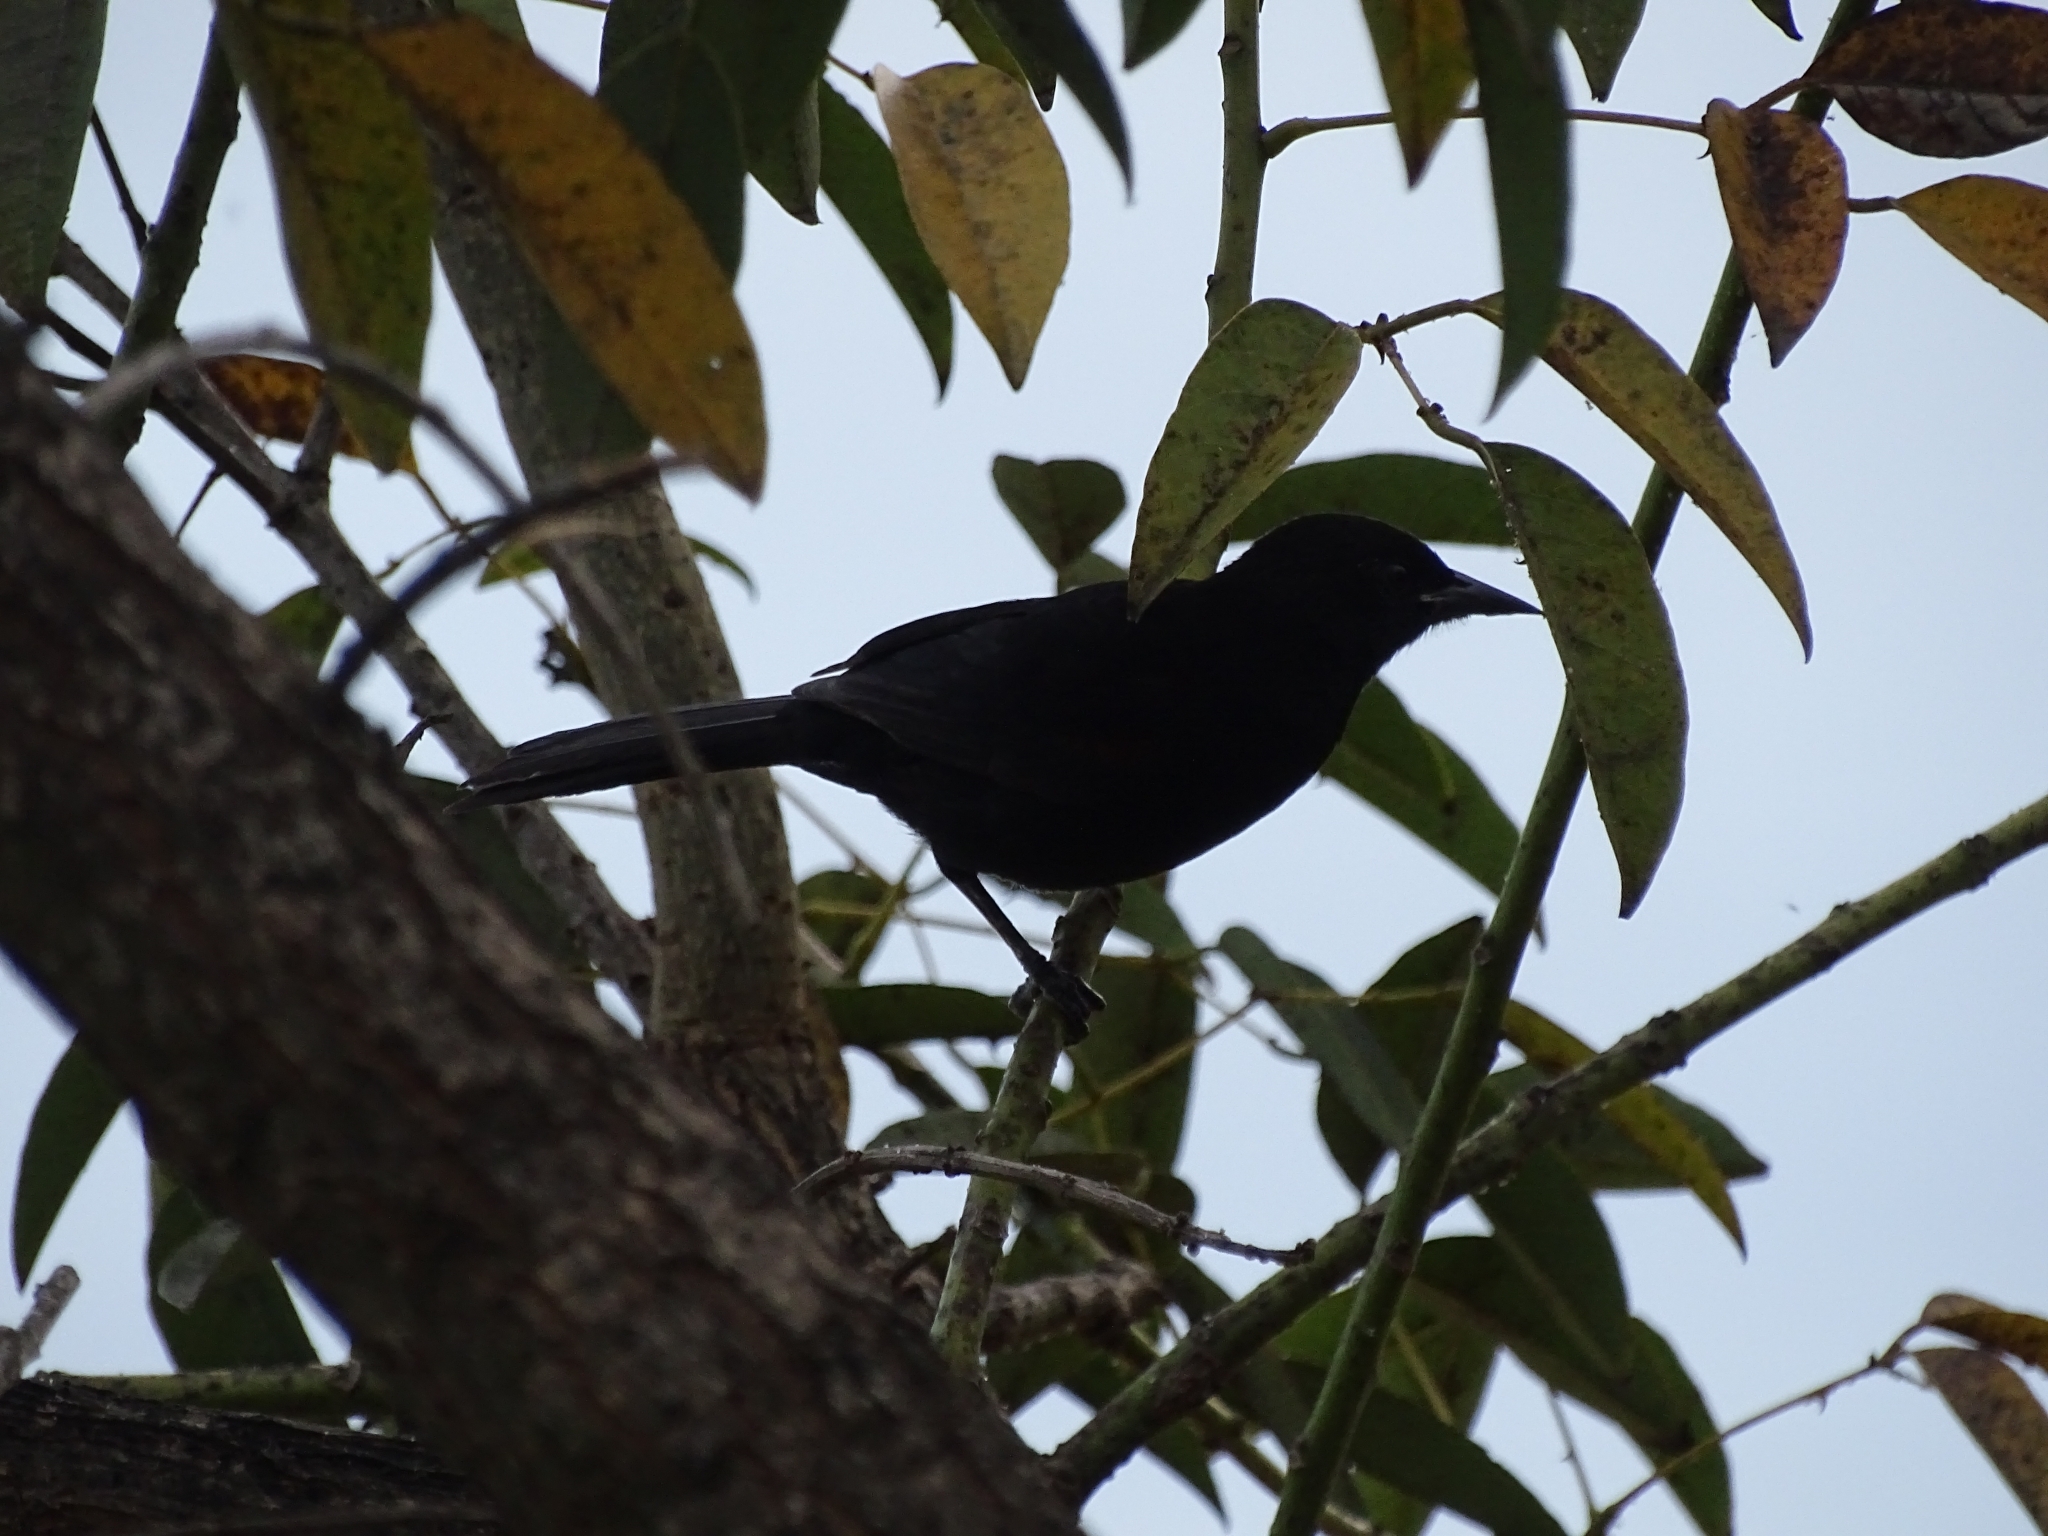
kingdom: Animalia
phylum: Chordata
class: Aves
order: Passeriformes
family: Icteridae
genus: Icterus
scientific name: Icterus cayanensis
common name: Epaulet oriole
